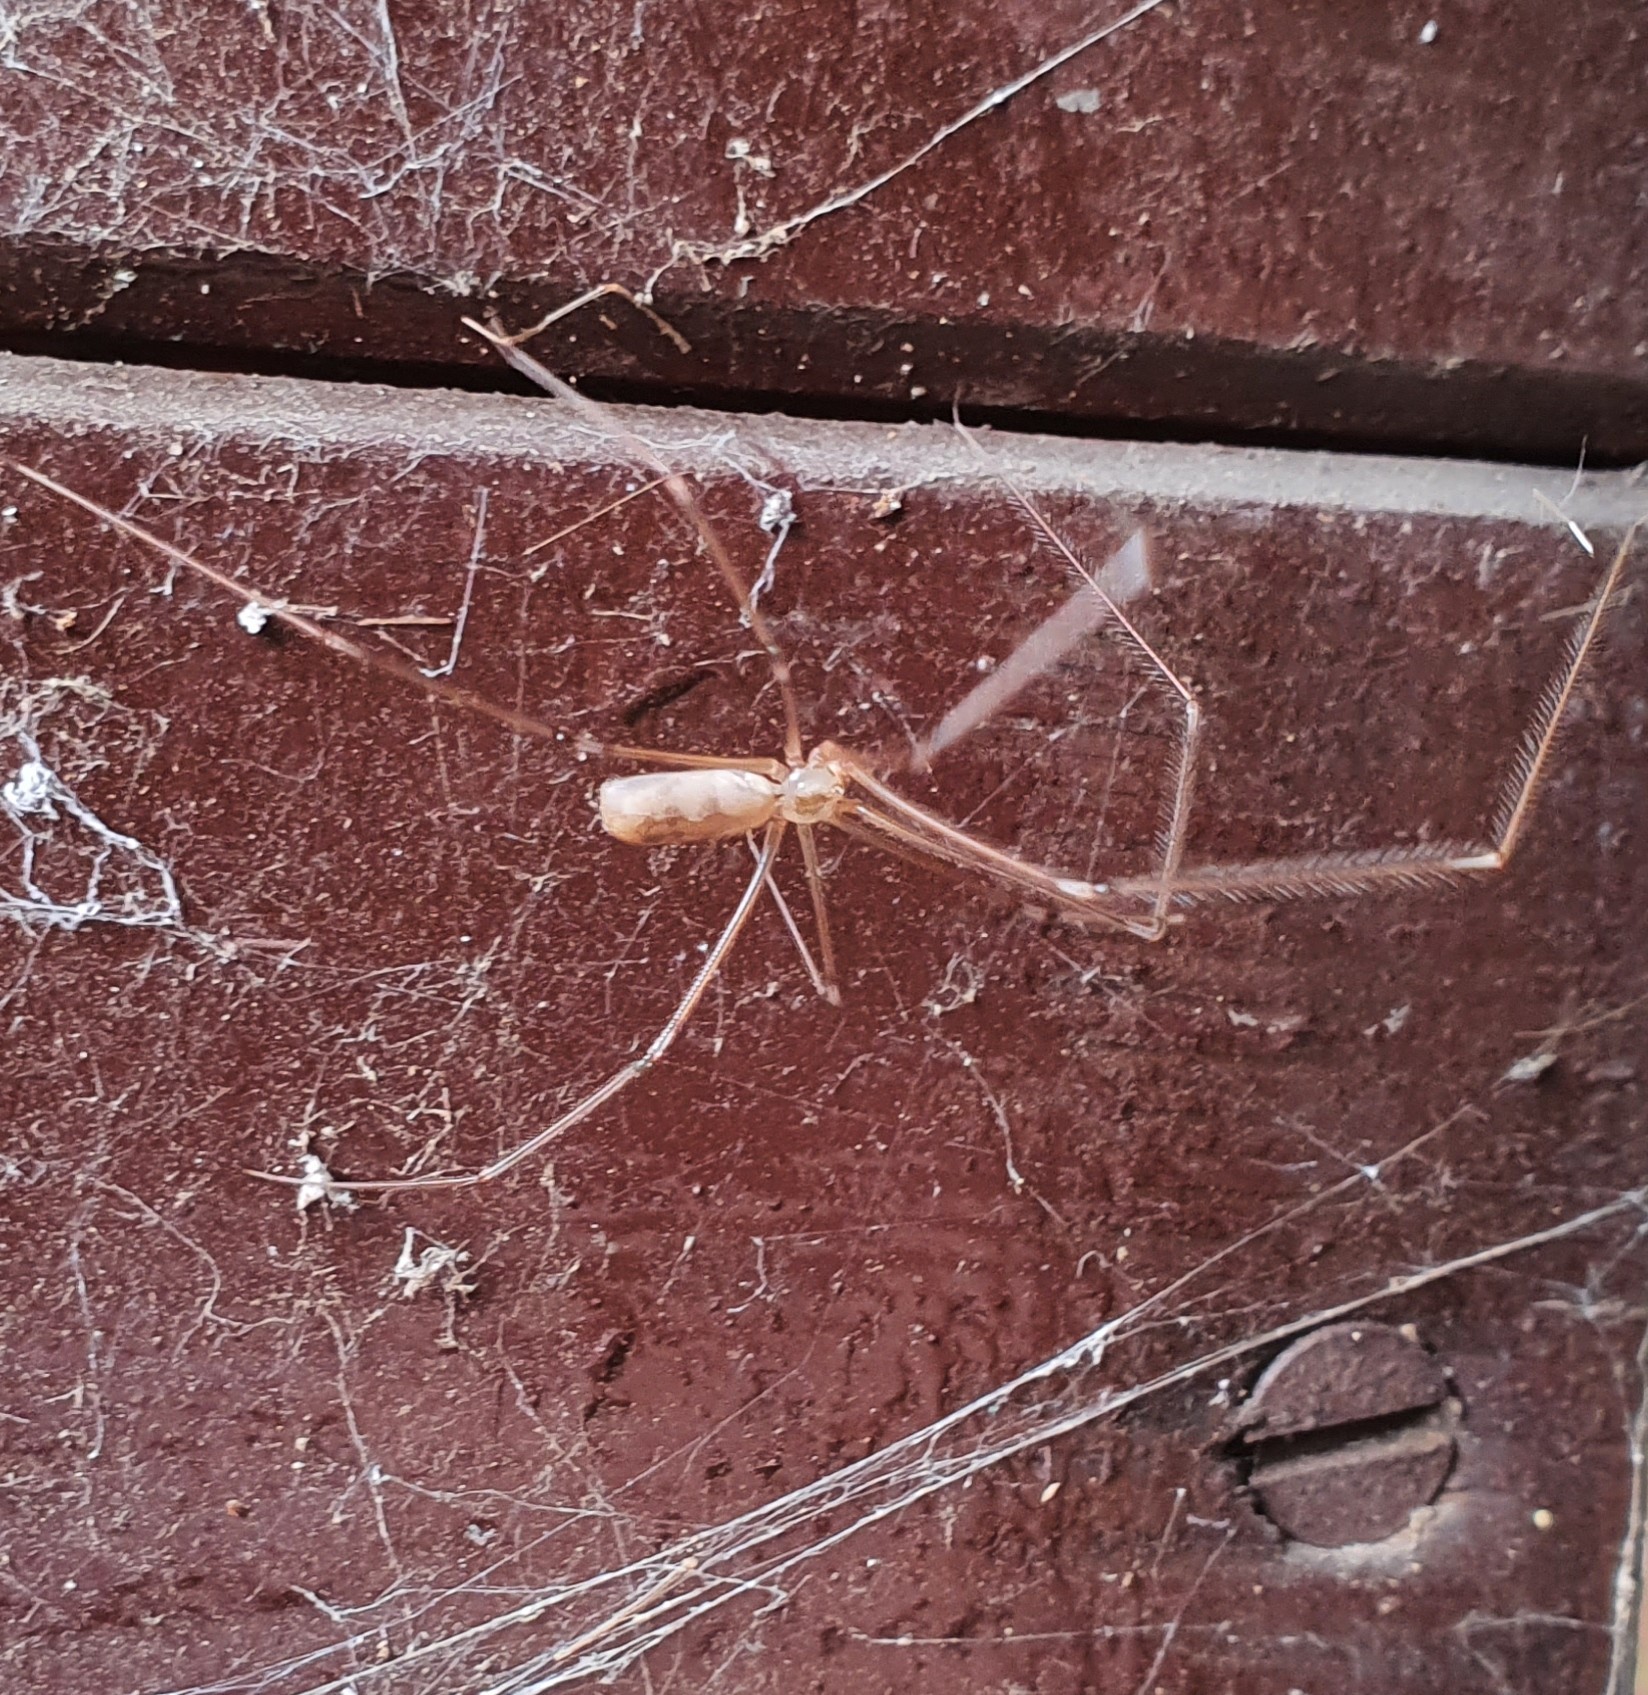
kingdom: Animalia
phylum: Arthropoda
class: Arachnida
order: Araneae
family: Pholcidae
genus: Pholcus
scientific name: Pholcus phalangioides
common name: Longbodied cellar spider
